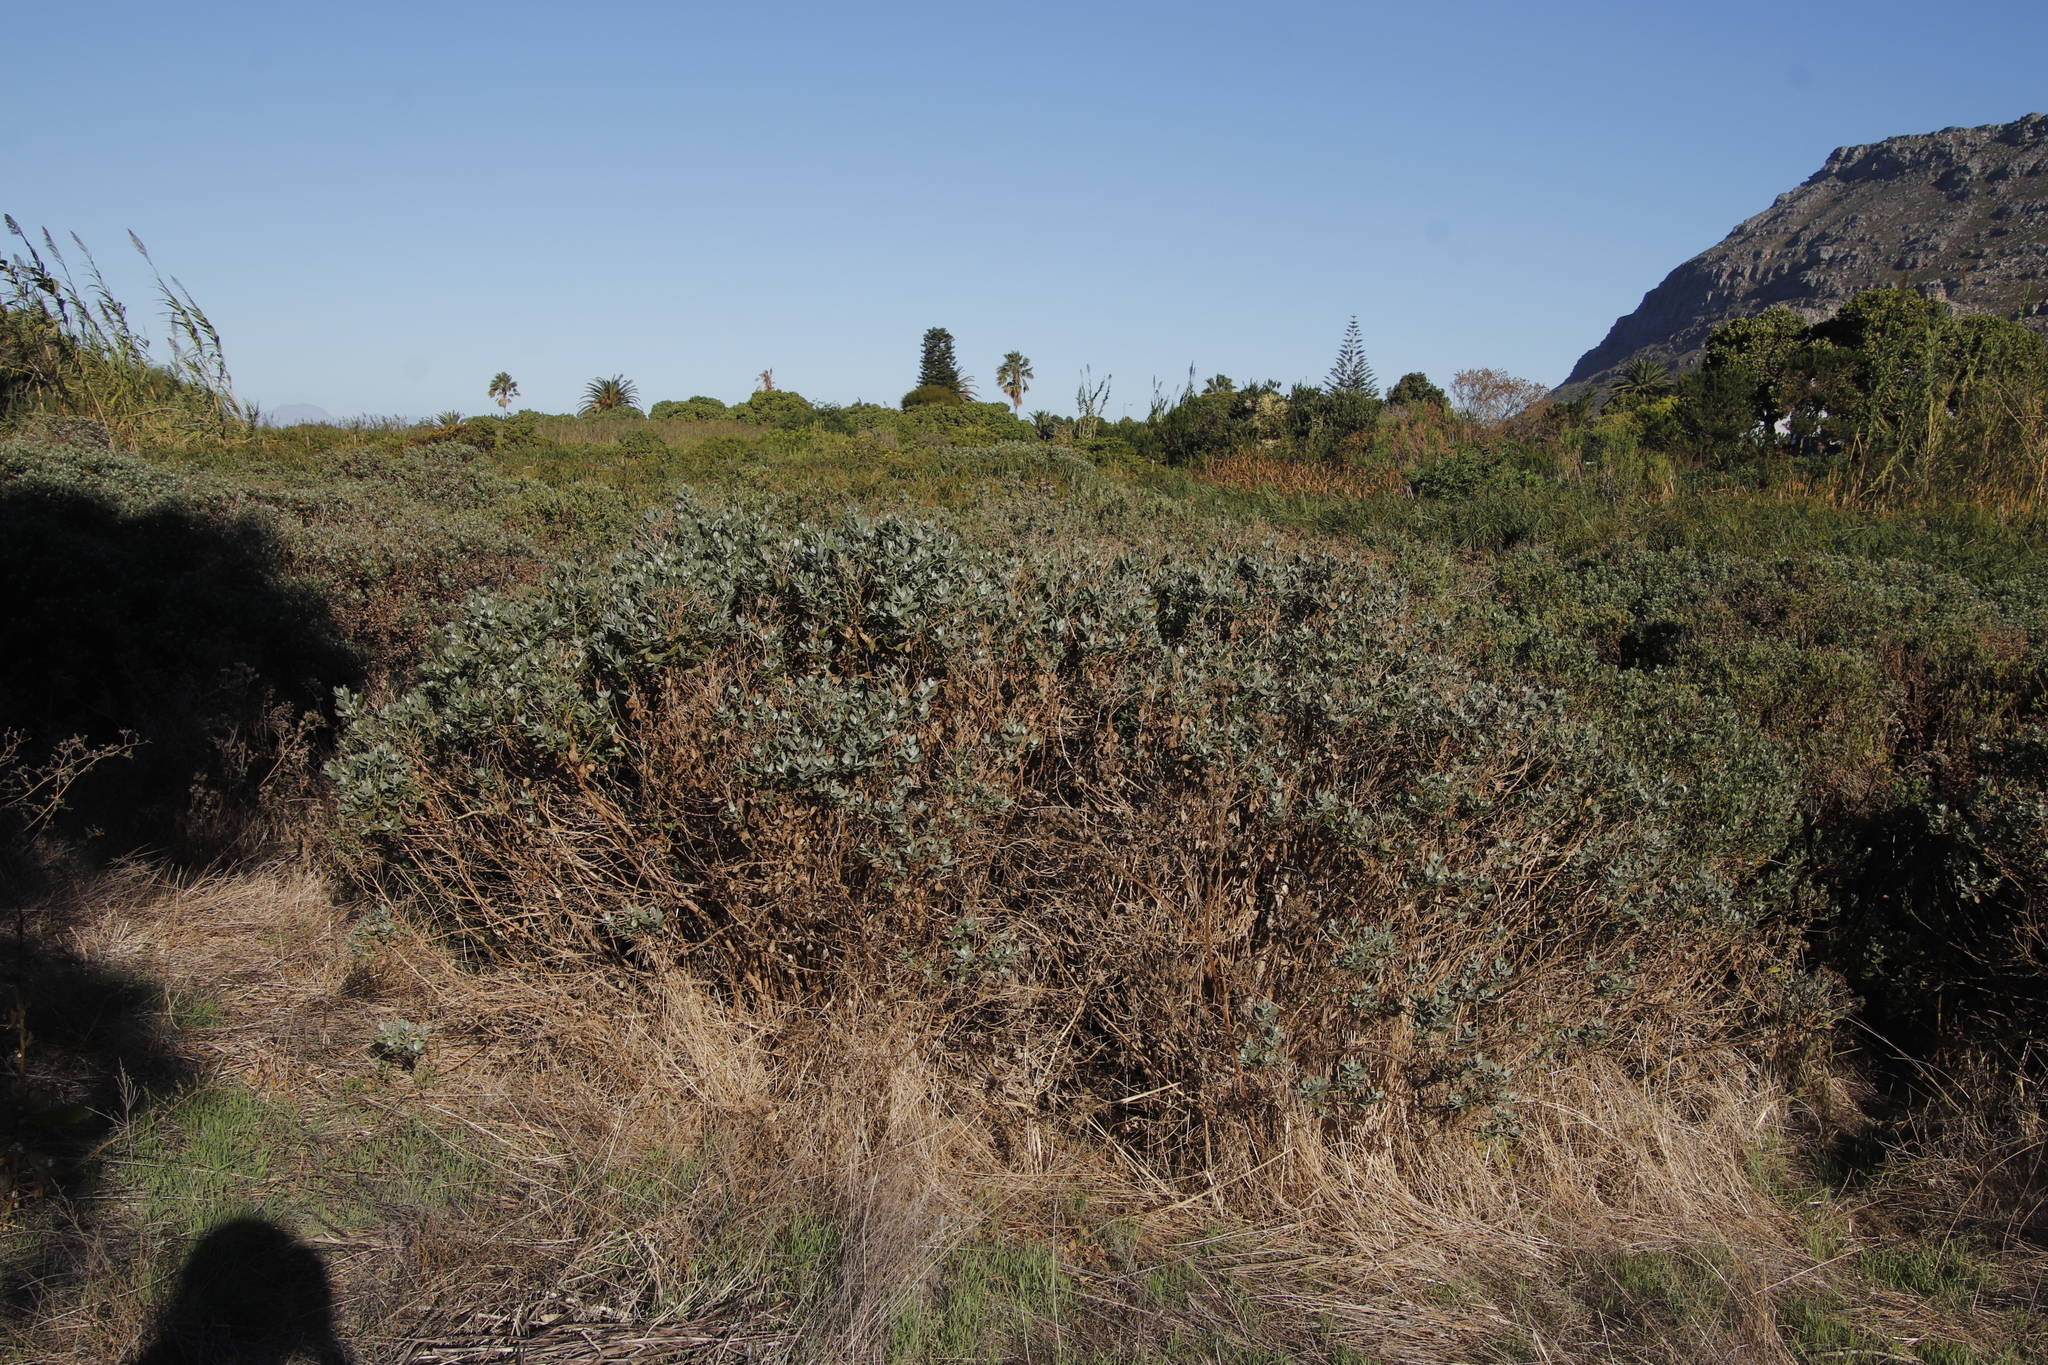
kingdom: Plantae
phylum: Tracheophyta
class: Magnoliopsida
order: Asterales
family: Asteraceae
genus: Senecio
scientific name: Senecio halimifolius
